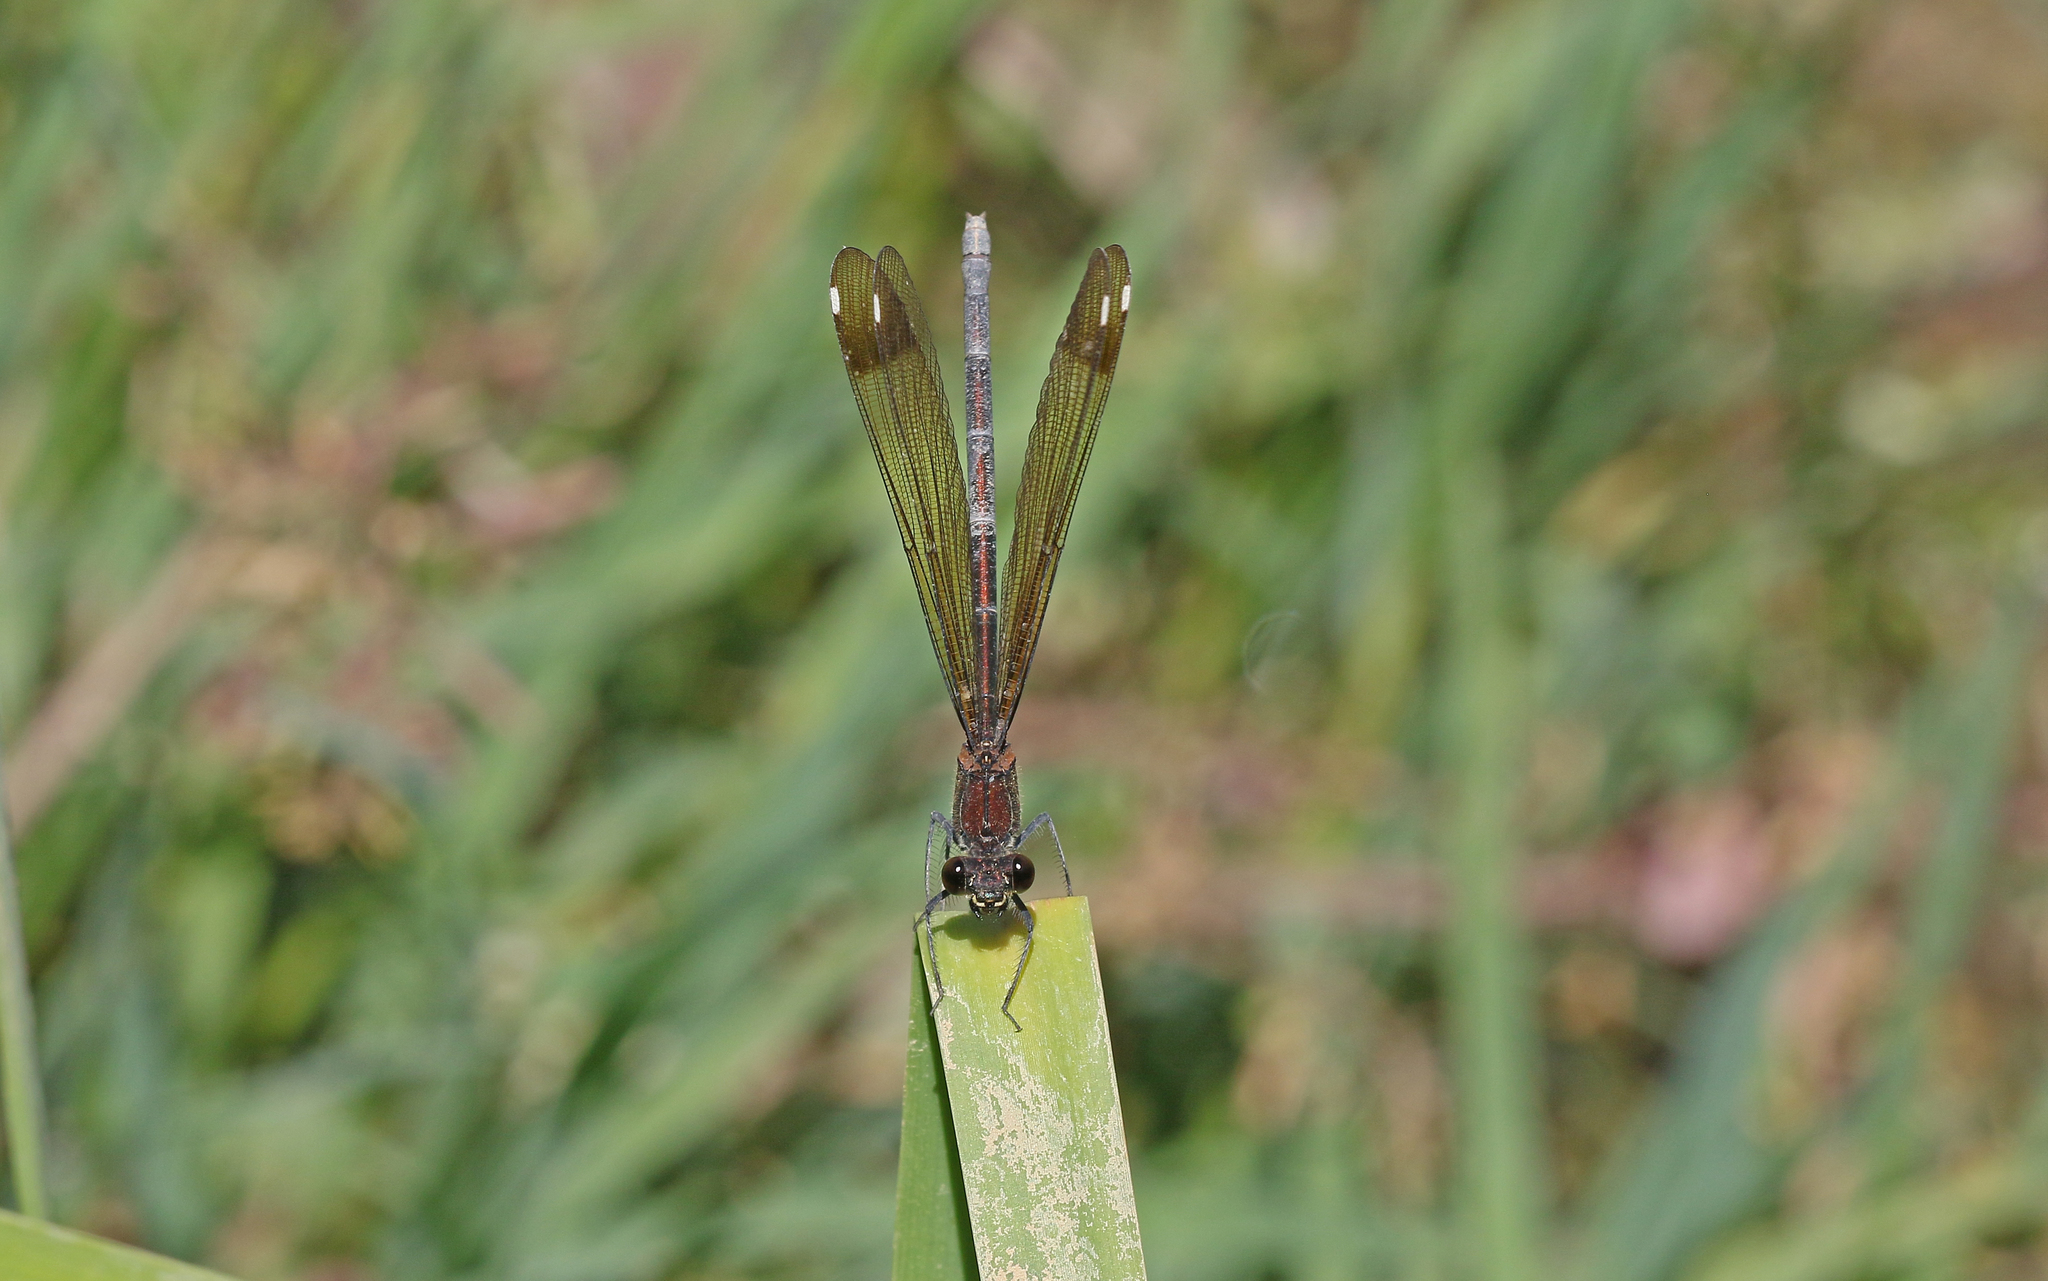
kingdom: Animalia
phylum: Arthropoda
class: Insecta
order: Odonata
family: Calopterygidae
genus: Calopteryx
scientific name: Calopteryx haemorrhoidalis
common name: Copper demoiselle
